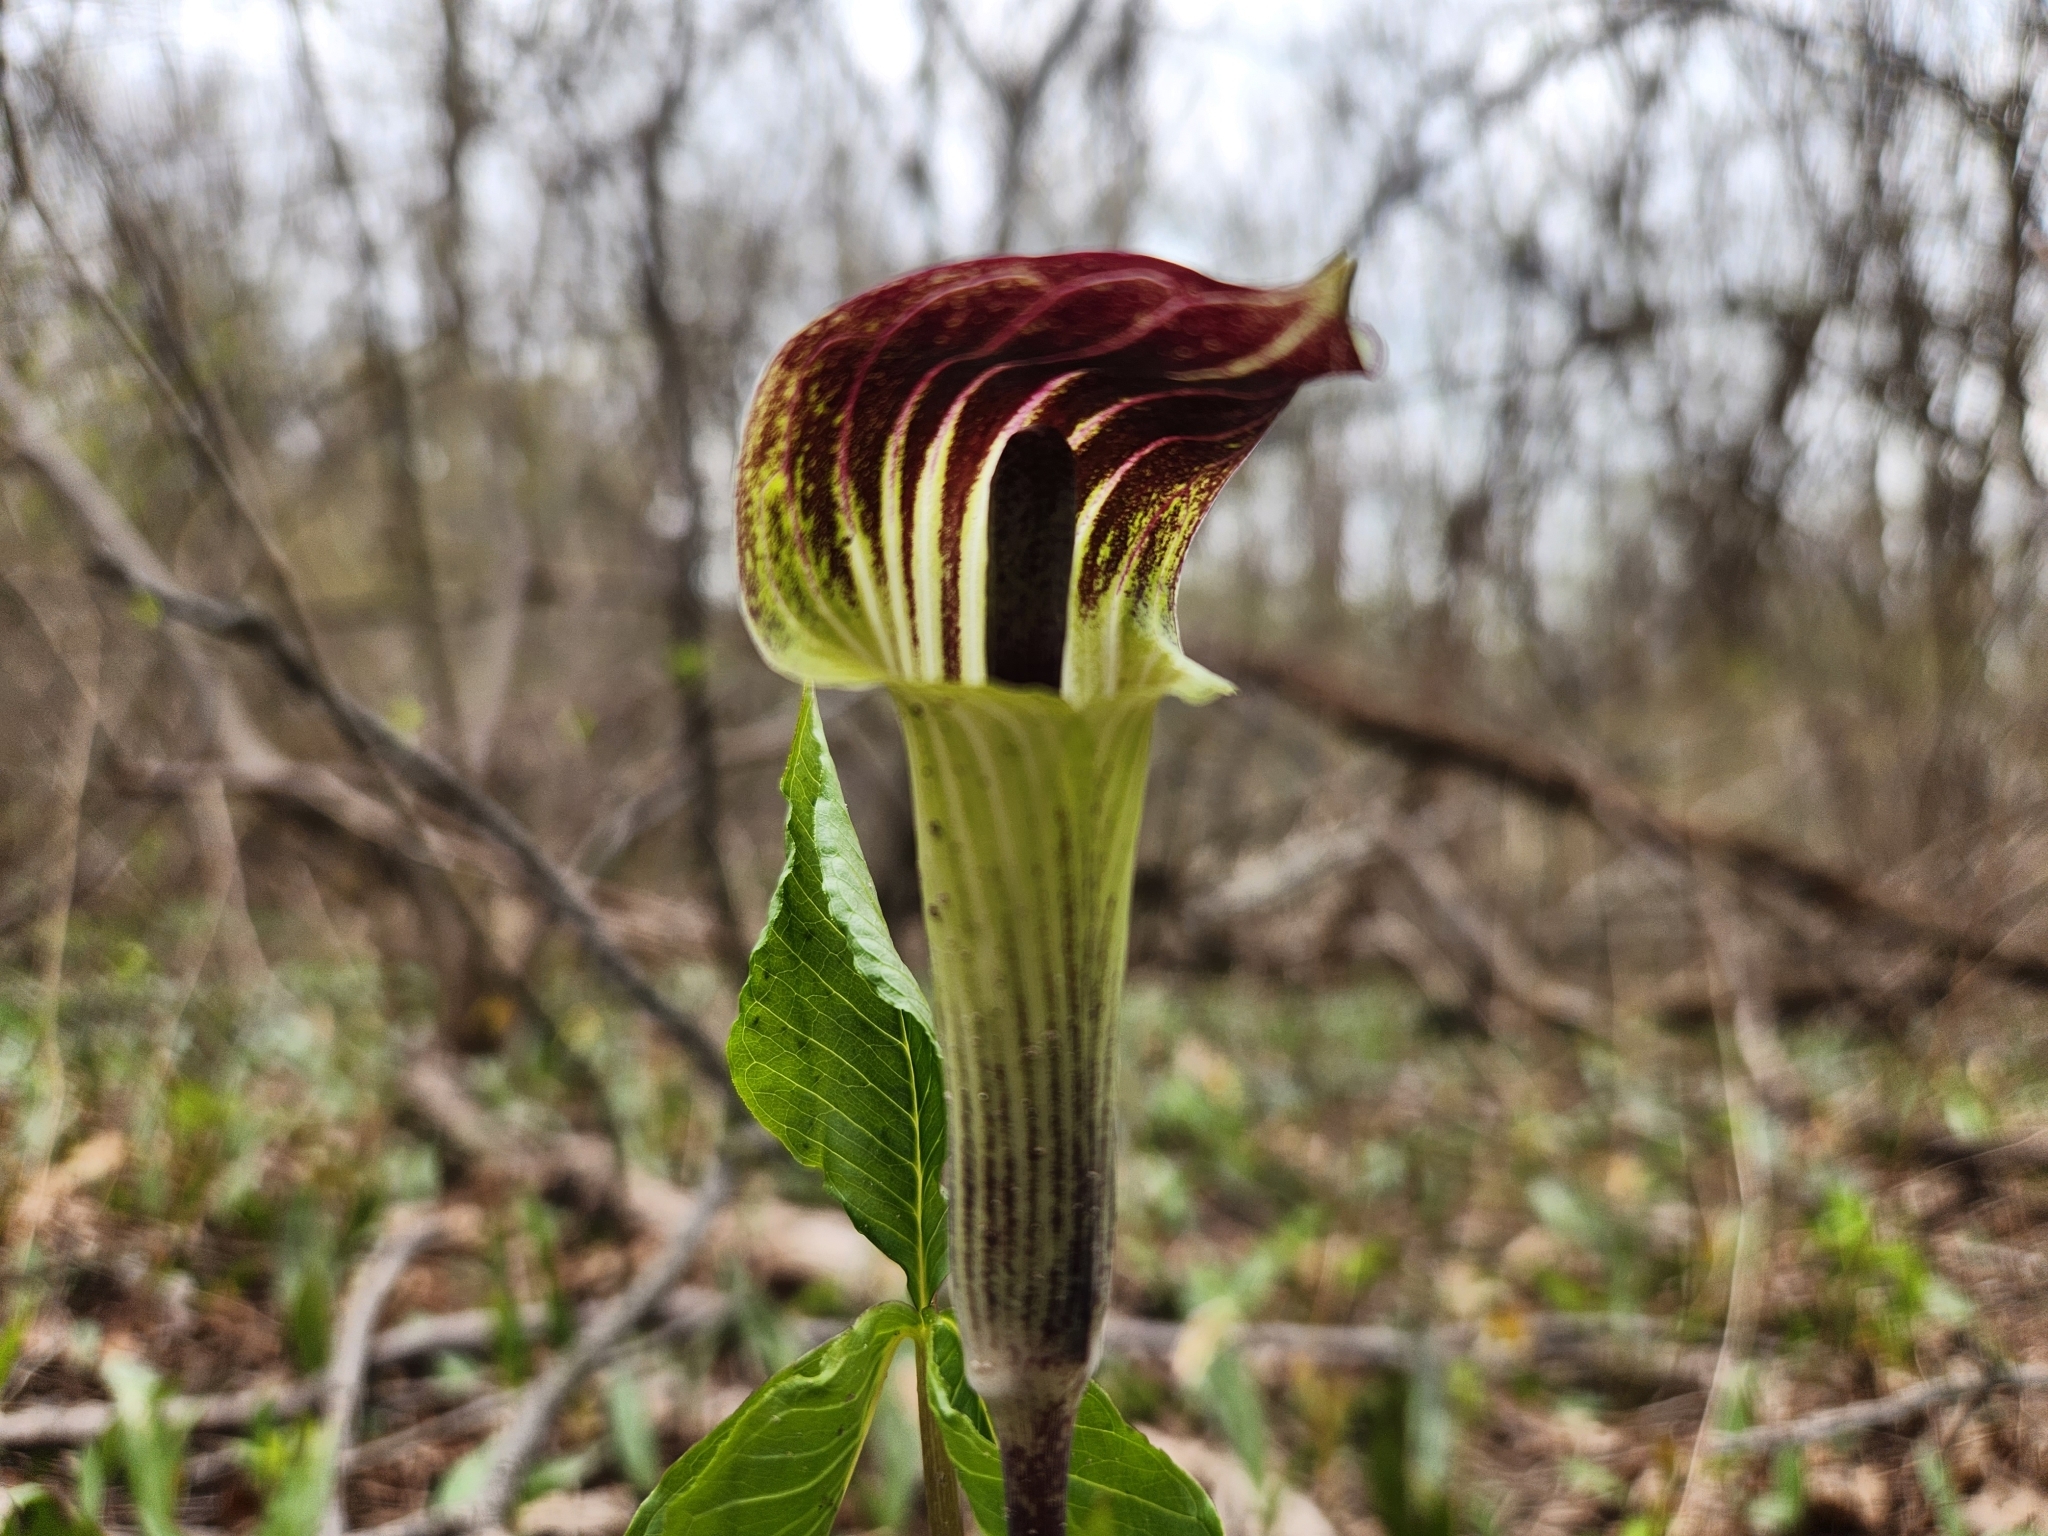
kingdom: Plantae
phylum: Tracheophyta
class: Liliopsida
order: Alismatales
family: Araceae
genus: Arisaema
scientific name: Arisaema triphyllum
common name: Jack-in-the-pulpit
